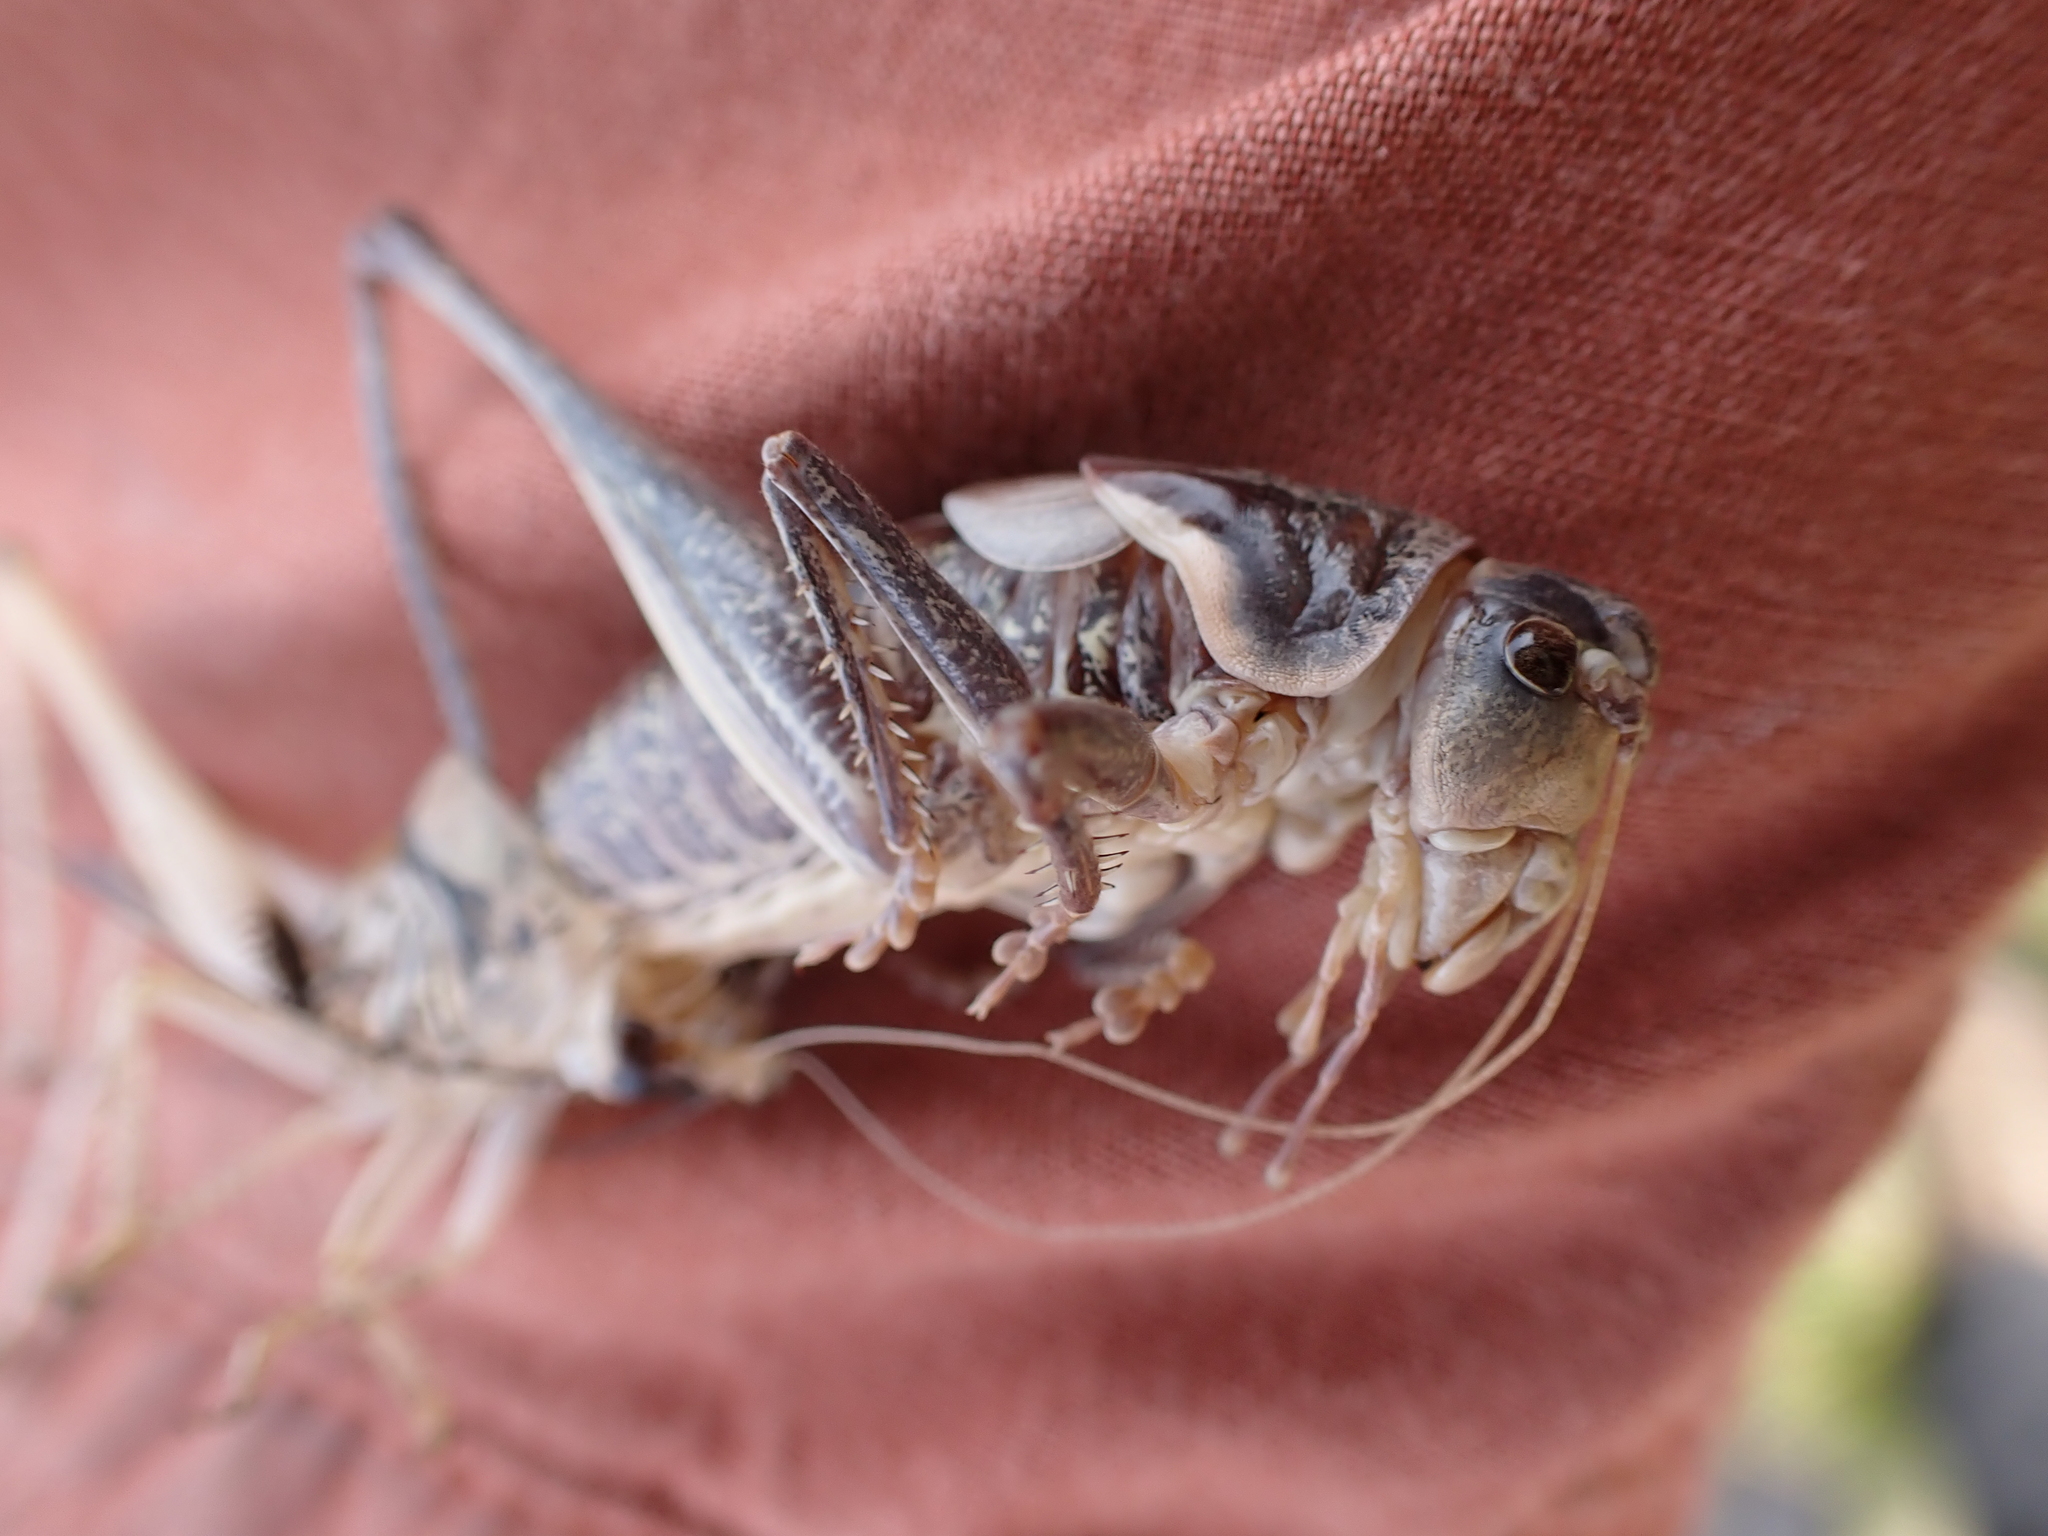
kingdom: Animalia
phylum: Arthropoda
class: Insecta
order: Orthoptera
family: Tettigoniidae
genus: Anabrus
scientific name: Anabrus longipes
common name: Long-legged anabrus
